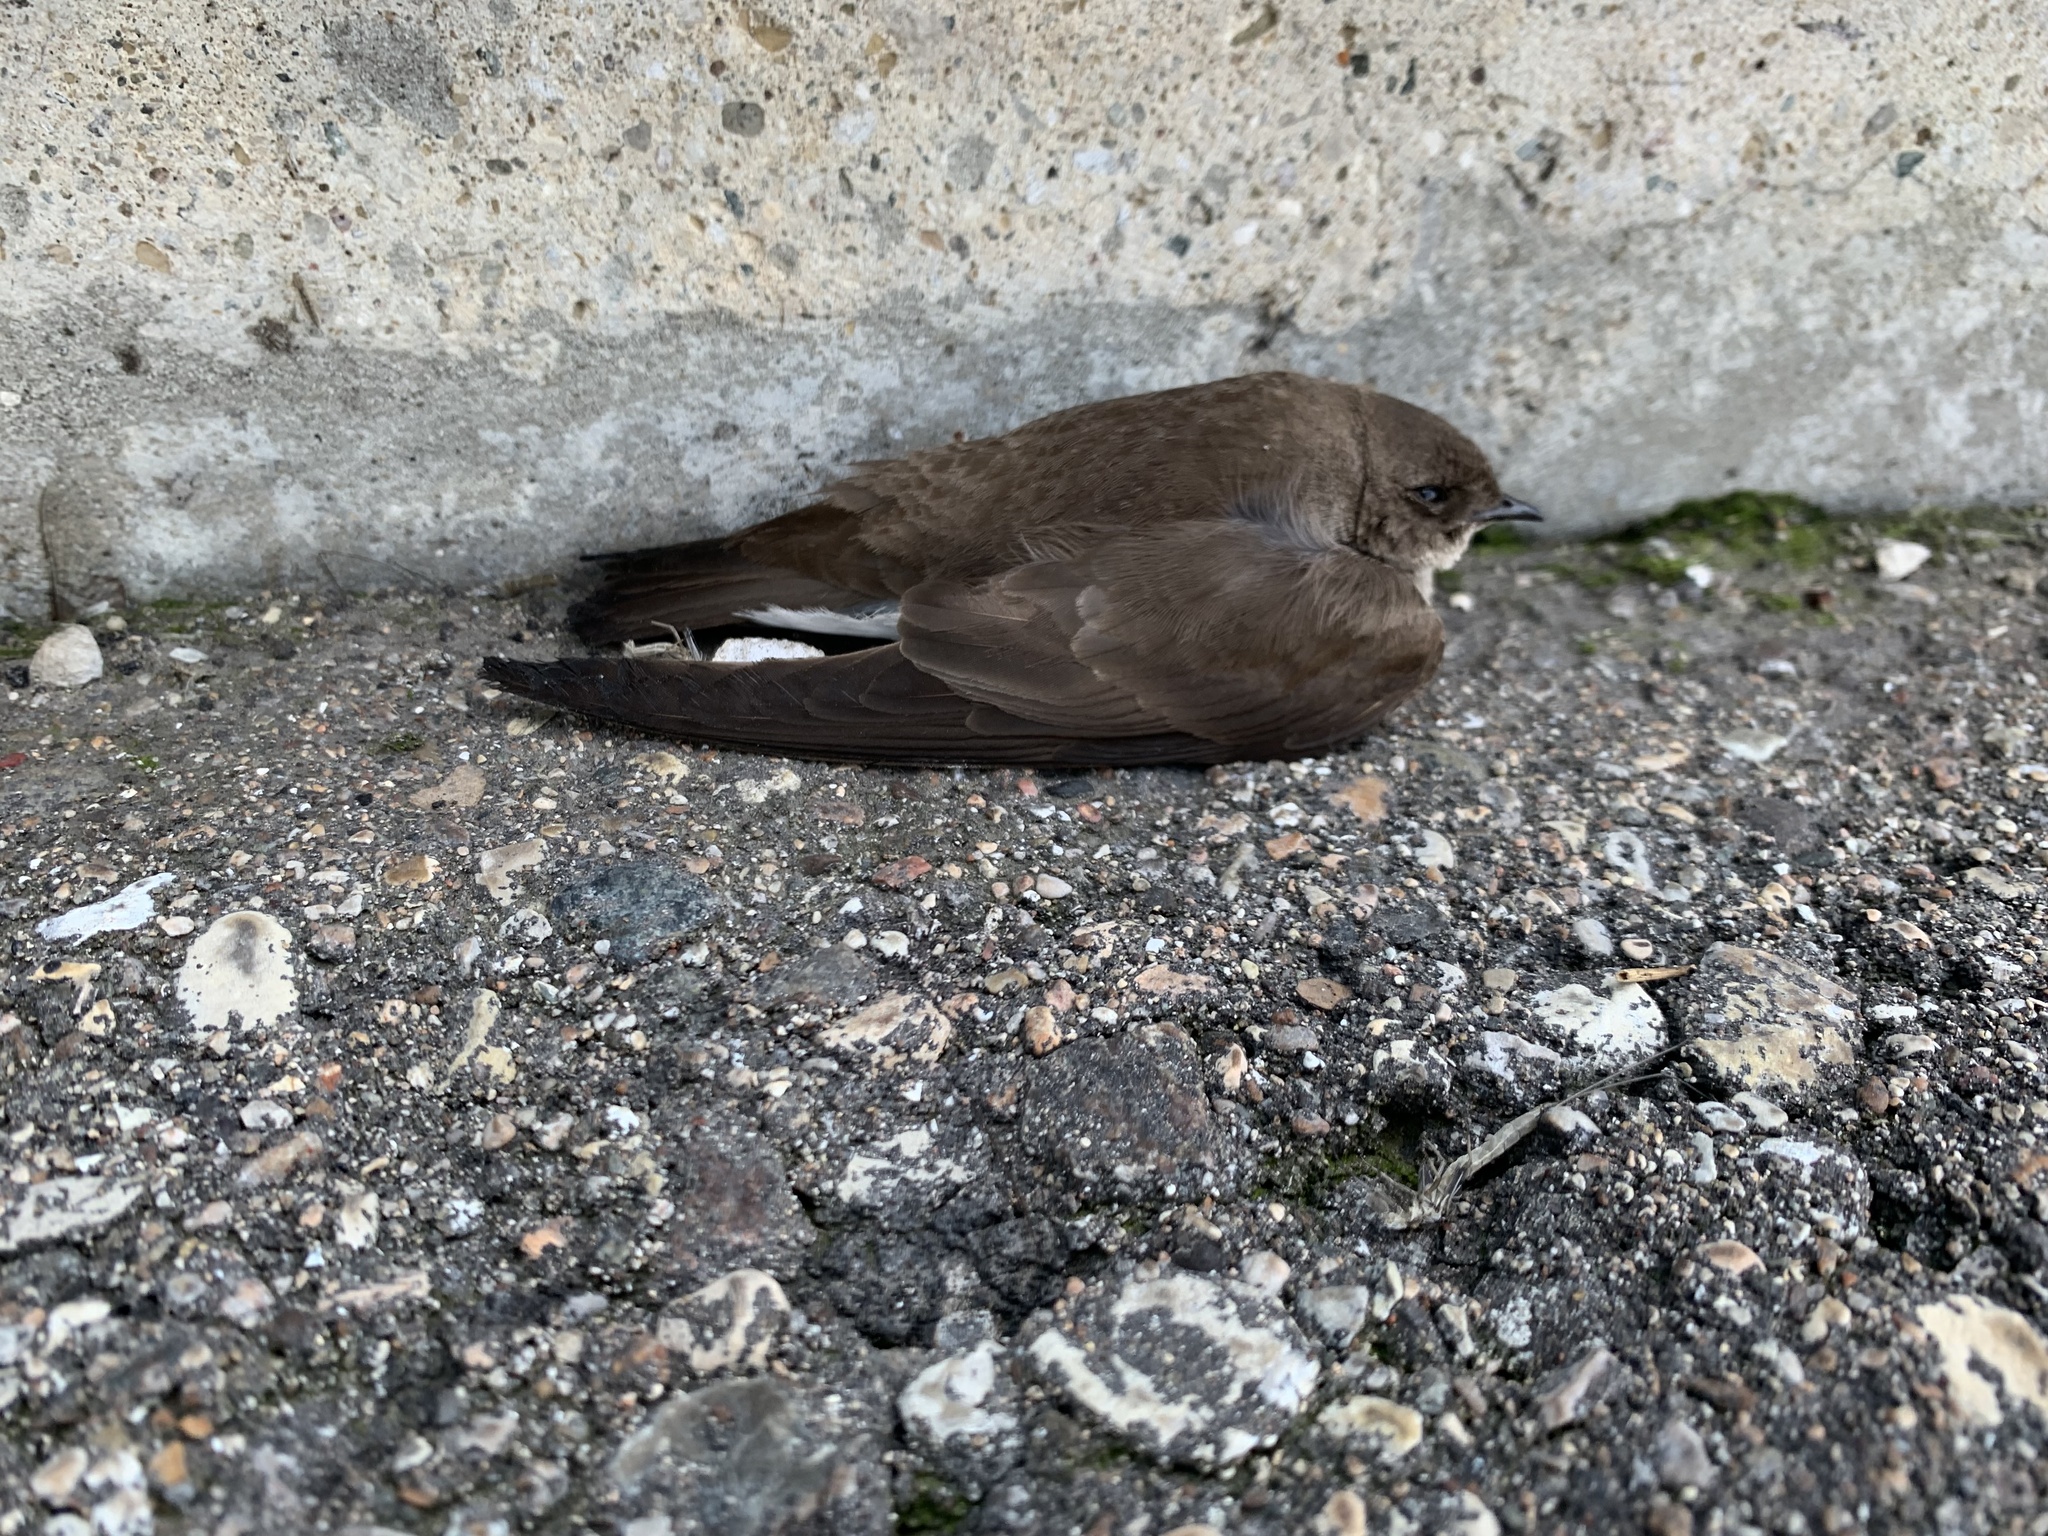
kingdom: Animalia
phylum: Chordata
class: Aves
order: Passeriformes
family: Hirundinidae
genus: Stelgidopteryx
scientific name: Stelgidopteryx serripennis
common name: Northern rough-winged swallow
